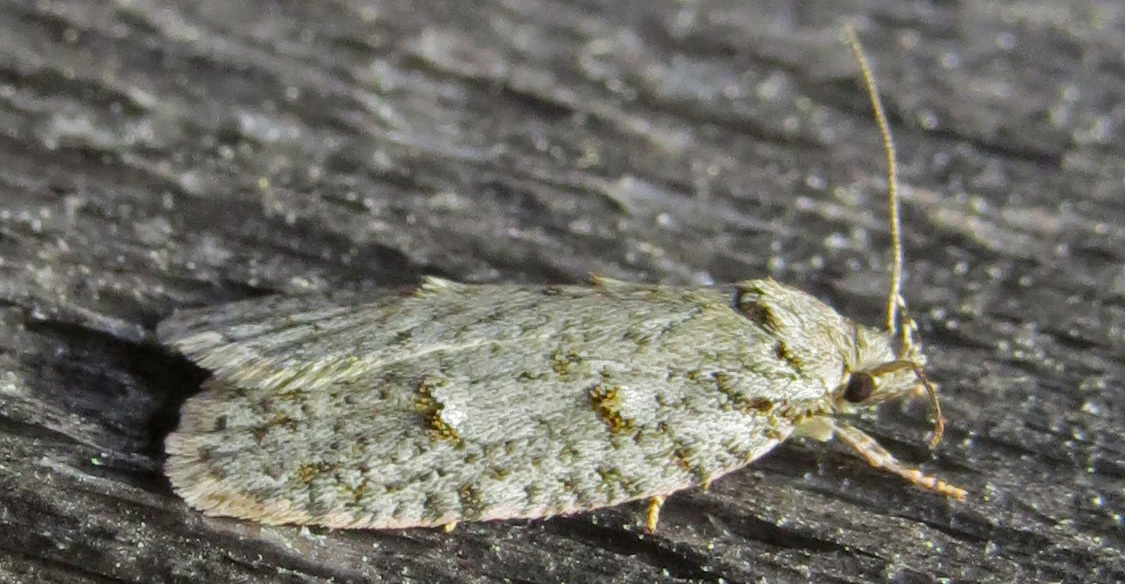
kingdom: Animalia
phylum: Arthropoda
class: Insecta
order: Lepidoptera
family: Depressariidae
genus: Bibarrambla
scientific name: Bibarrambla allenella
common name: Bog bibarrambla moth
